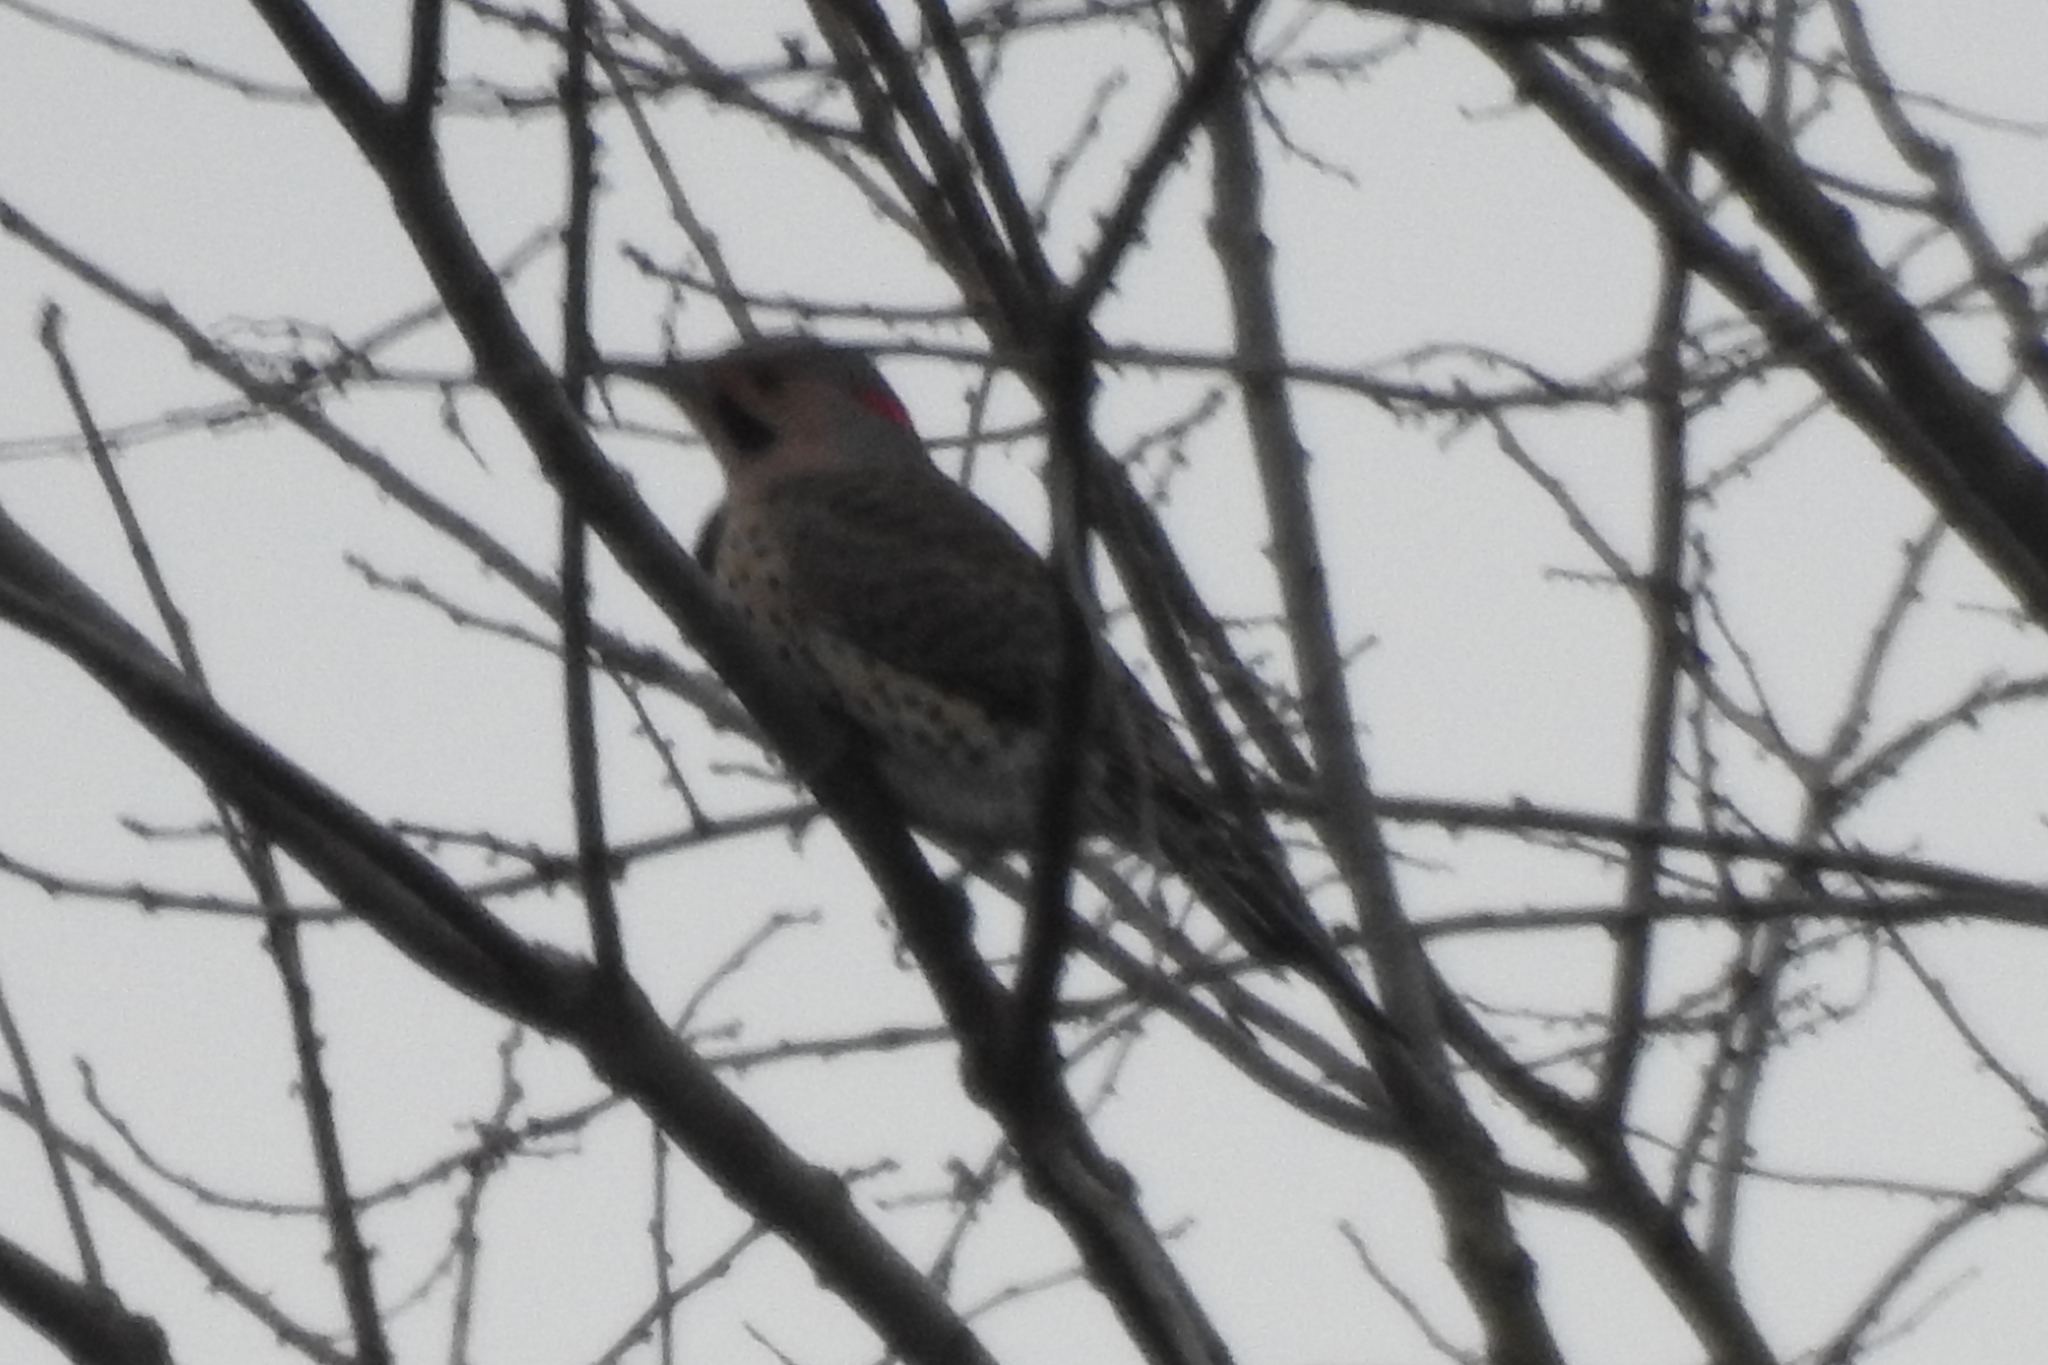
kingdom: Animalia
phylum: Chordata
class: Aves
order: Piciformes
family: Picidae
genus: Colaptes
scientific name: Colaptes auratus
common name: Northern flicker
